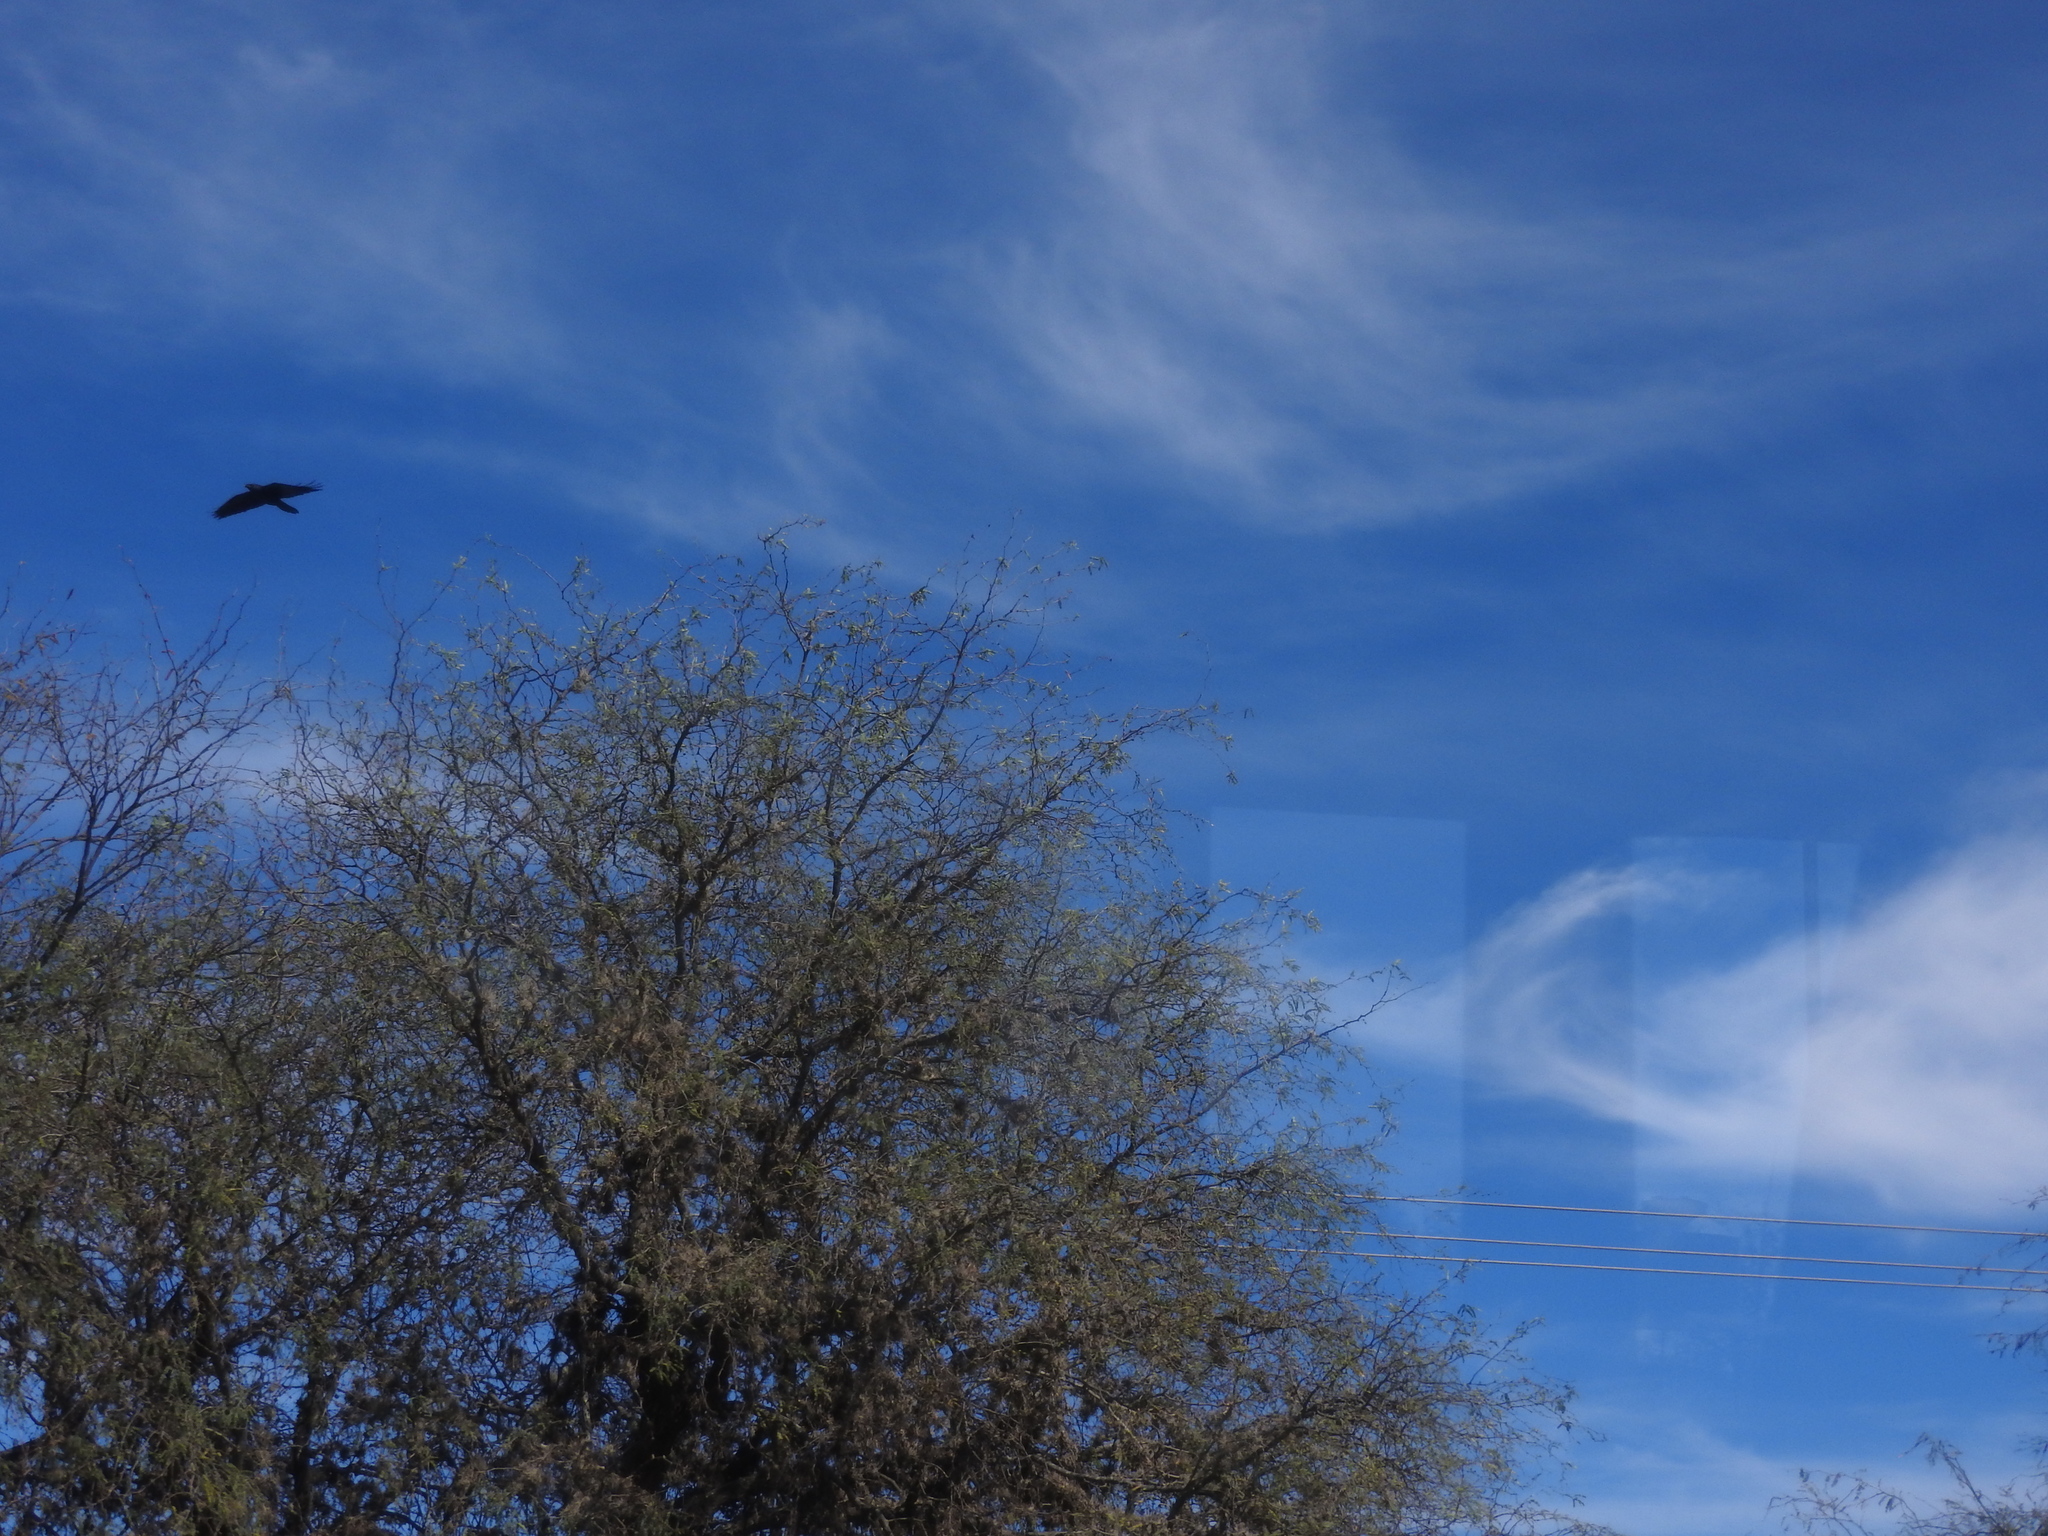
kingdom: Animalia
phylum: Chordata
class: Aves
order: Passeriformes
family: Corvidae
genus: Corvus
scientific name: Corvus corax
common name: Common raven
